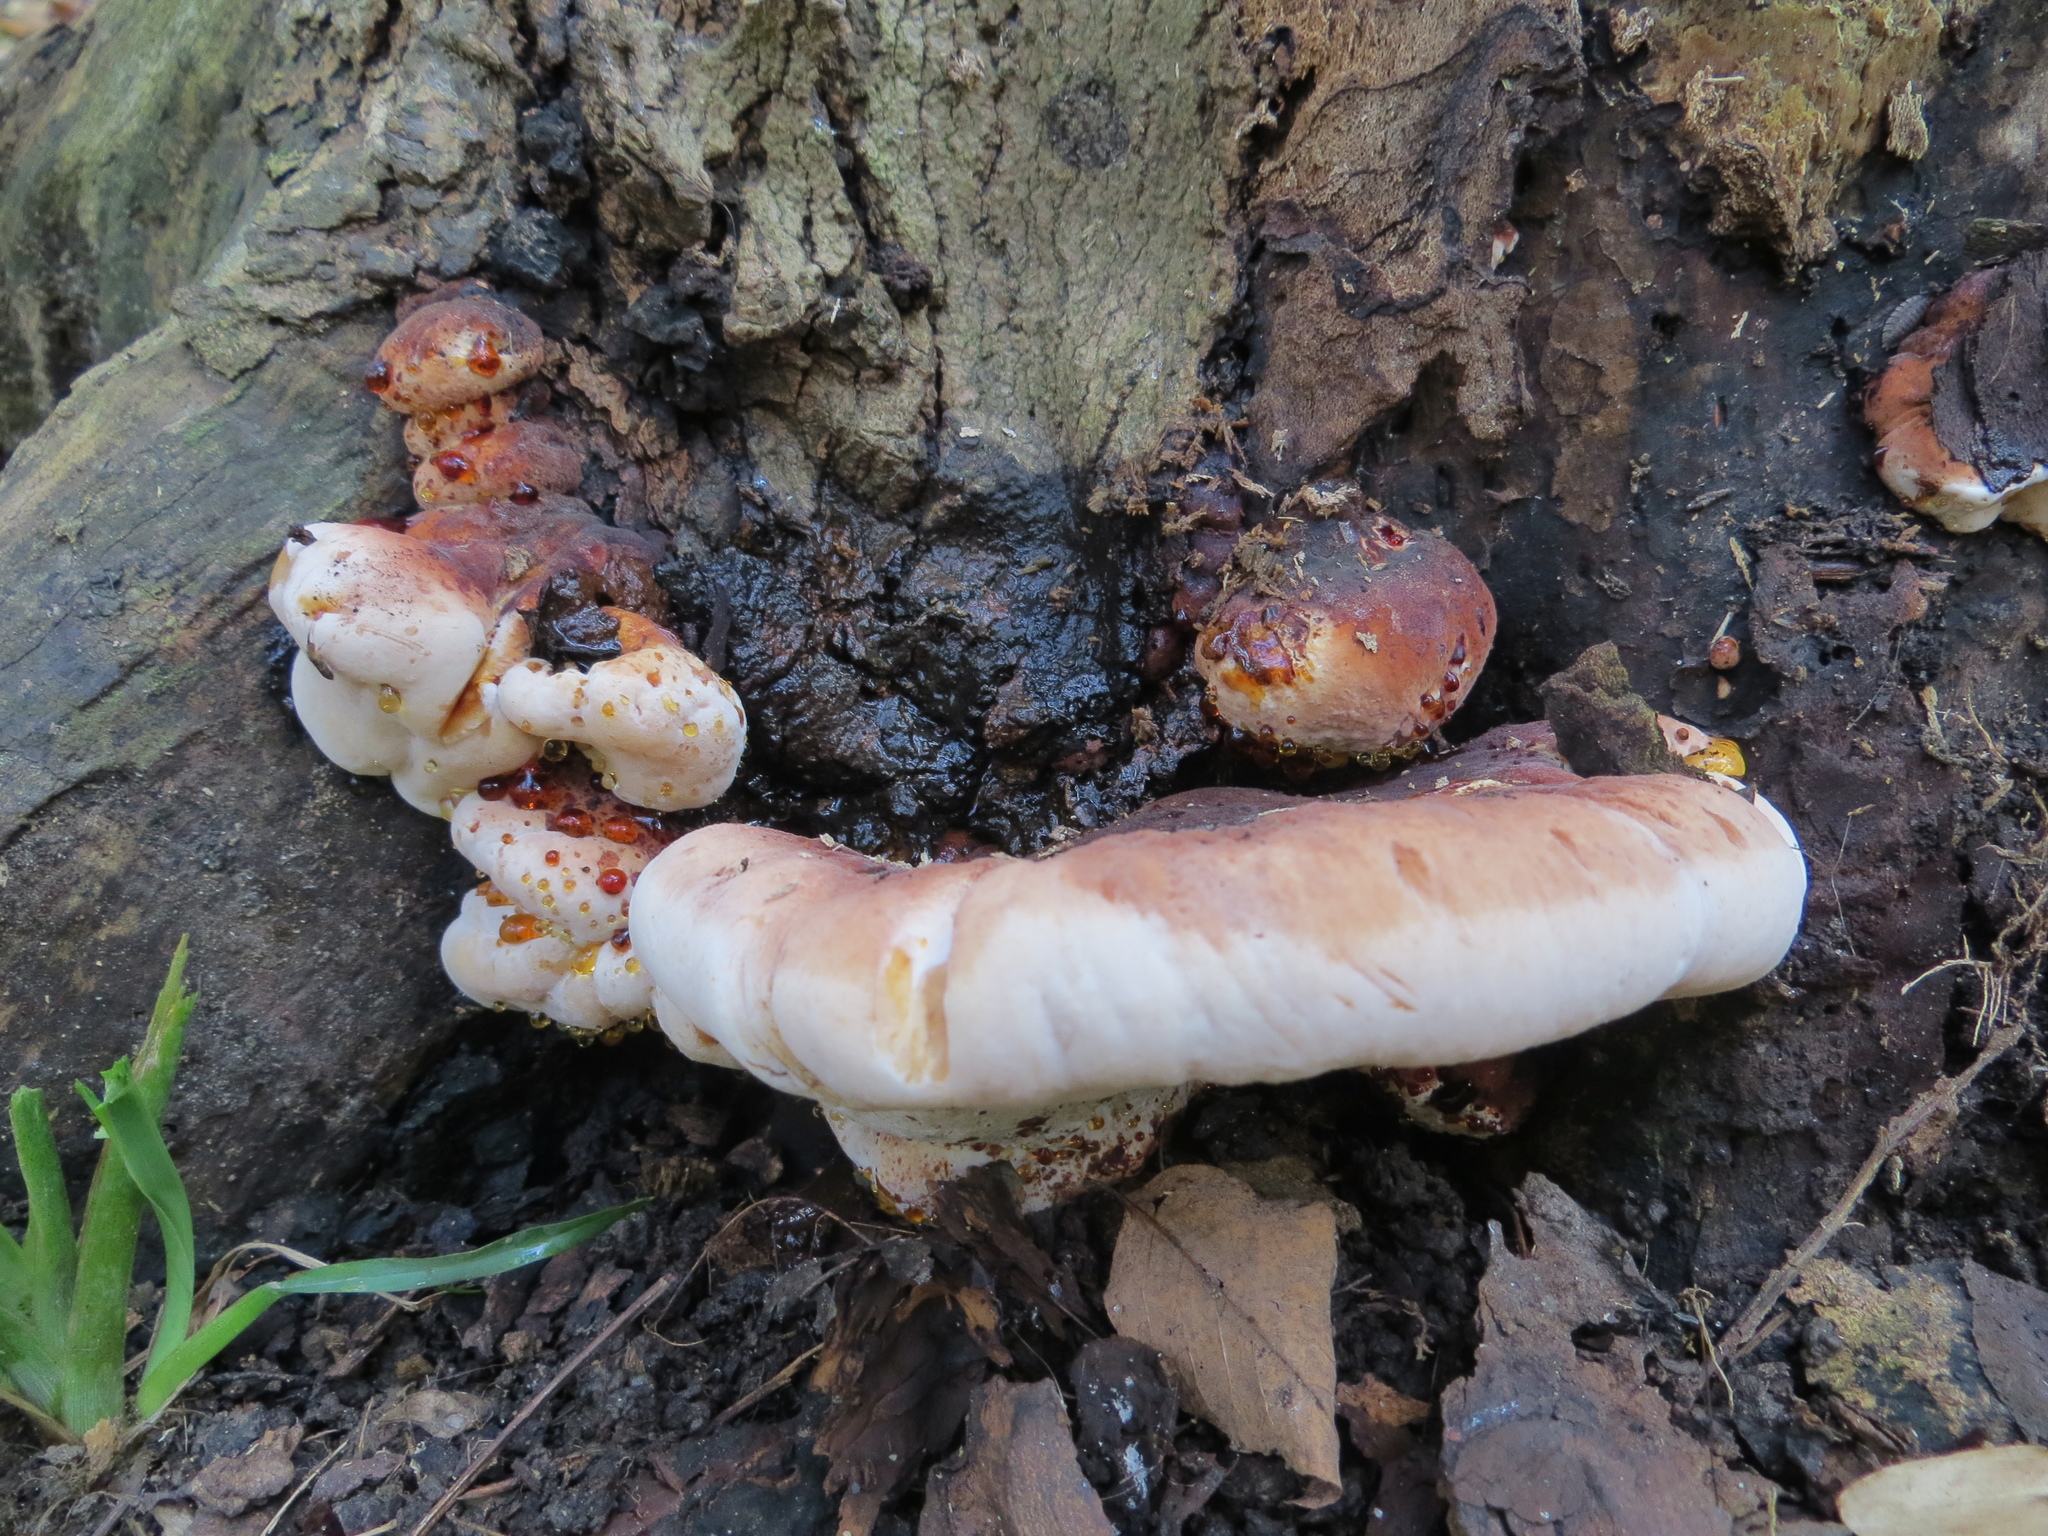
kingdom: Fungi
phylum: Basidiomycota
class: Agaricomycetes
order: Polyporales
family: Ischnodermataceae
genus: Ischnoderma
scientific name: Ischnoderma resinosum
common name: Resinous polypore
